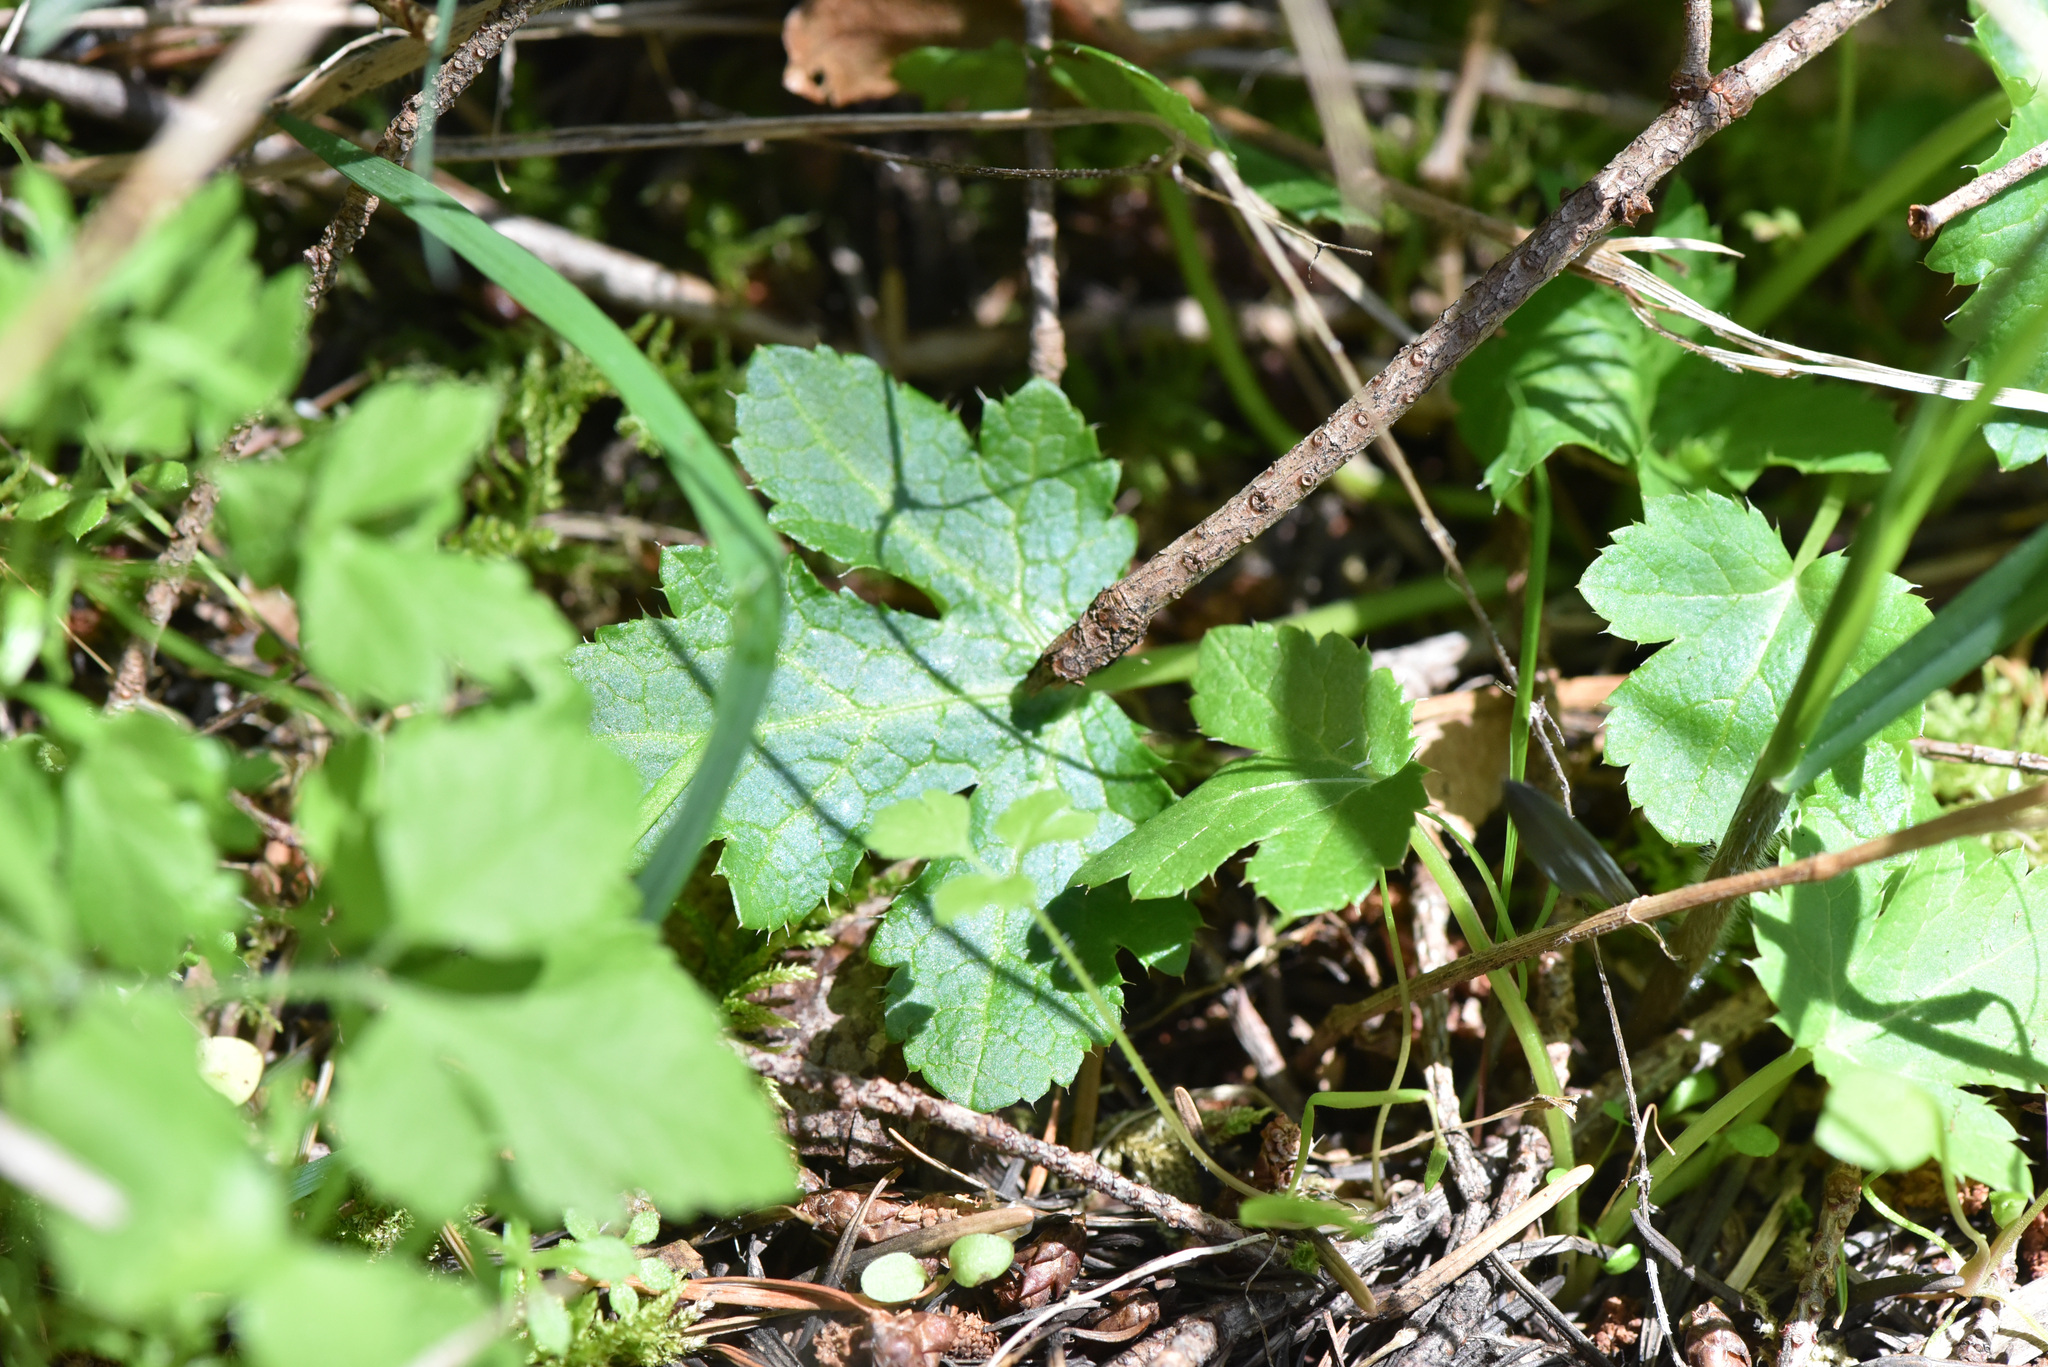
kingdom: Plantae
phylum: Tracheophyta
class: Magnoliopsida
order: Apiales
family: Apiaceae
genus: Sanicula
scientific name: Sanicula crassicaulis
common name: Western snakeroot
